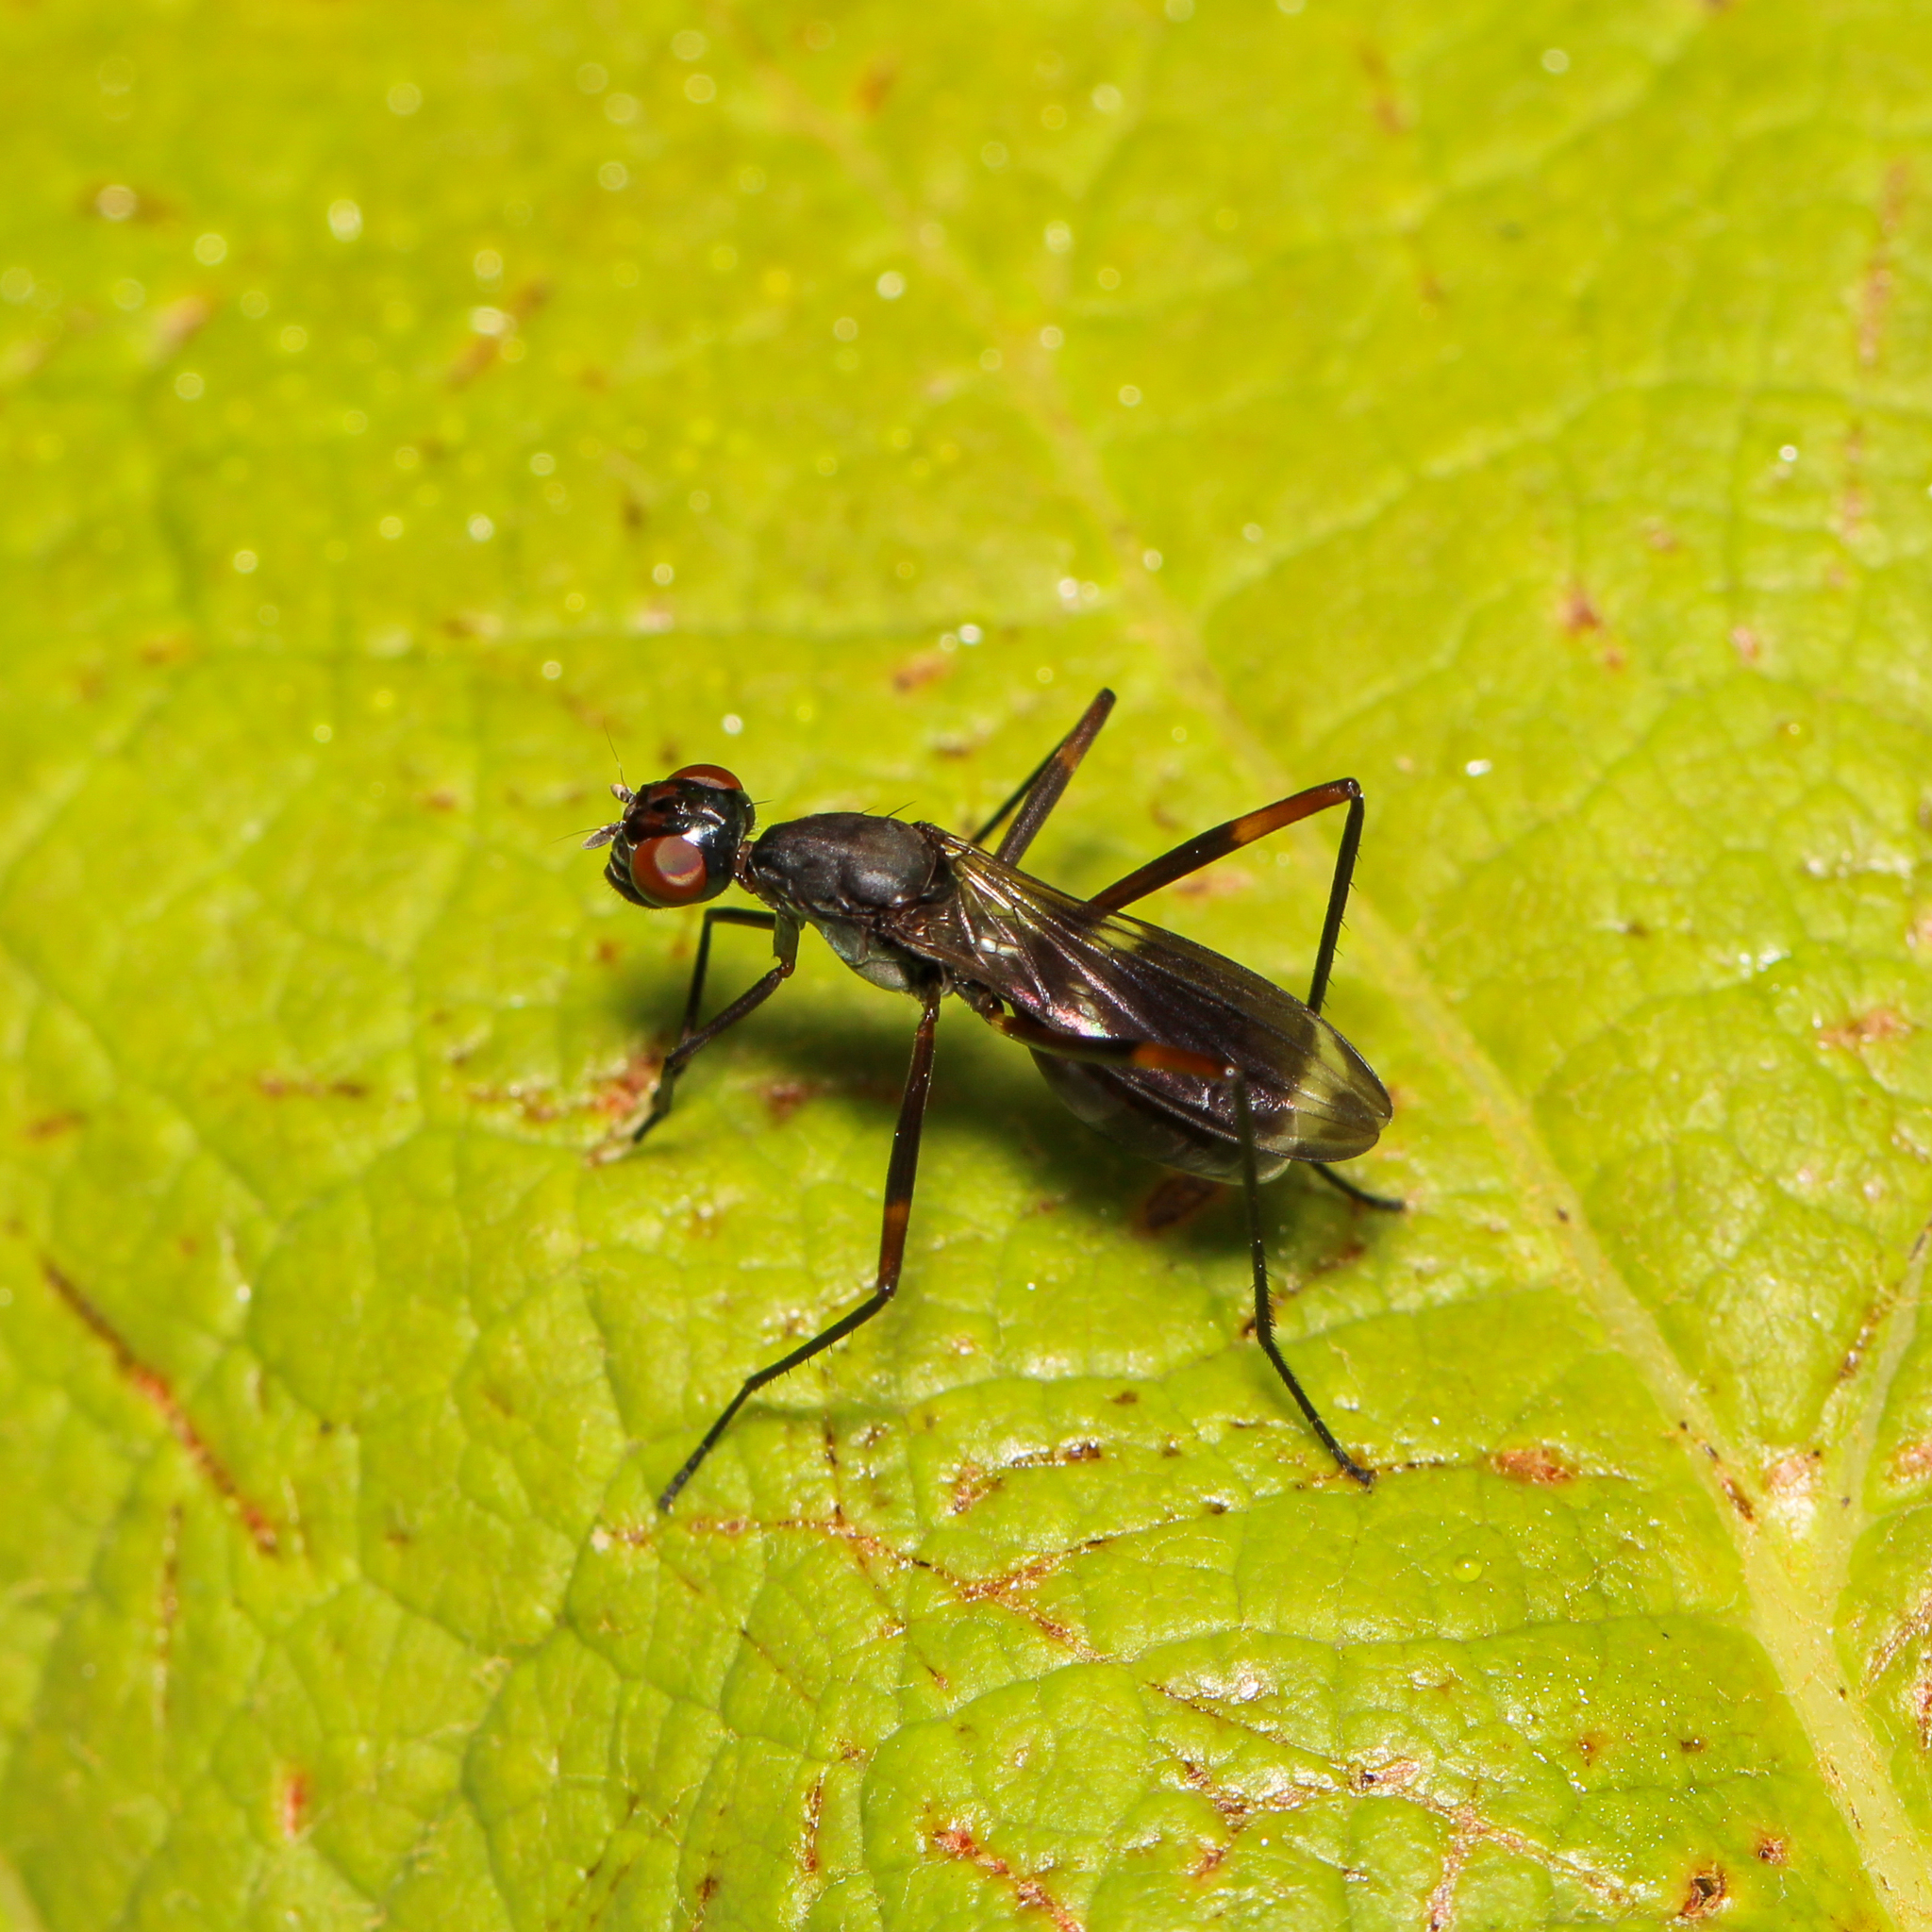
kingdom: Animalia
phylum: Arthropoda
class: Insecta
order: Diptera
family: Micropezidae
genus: Taeniaptera
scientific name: Taeniaptera trivittata
